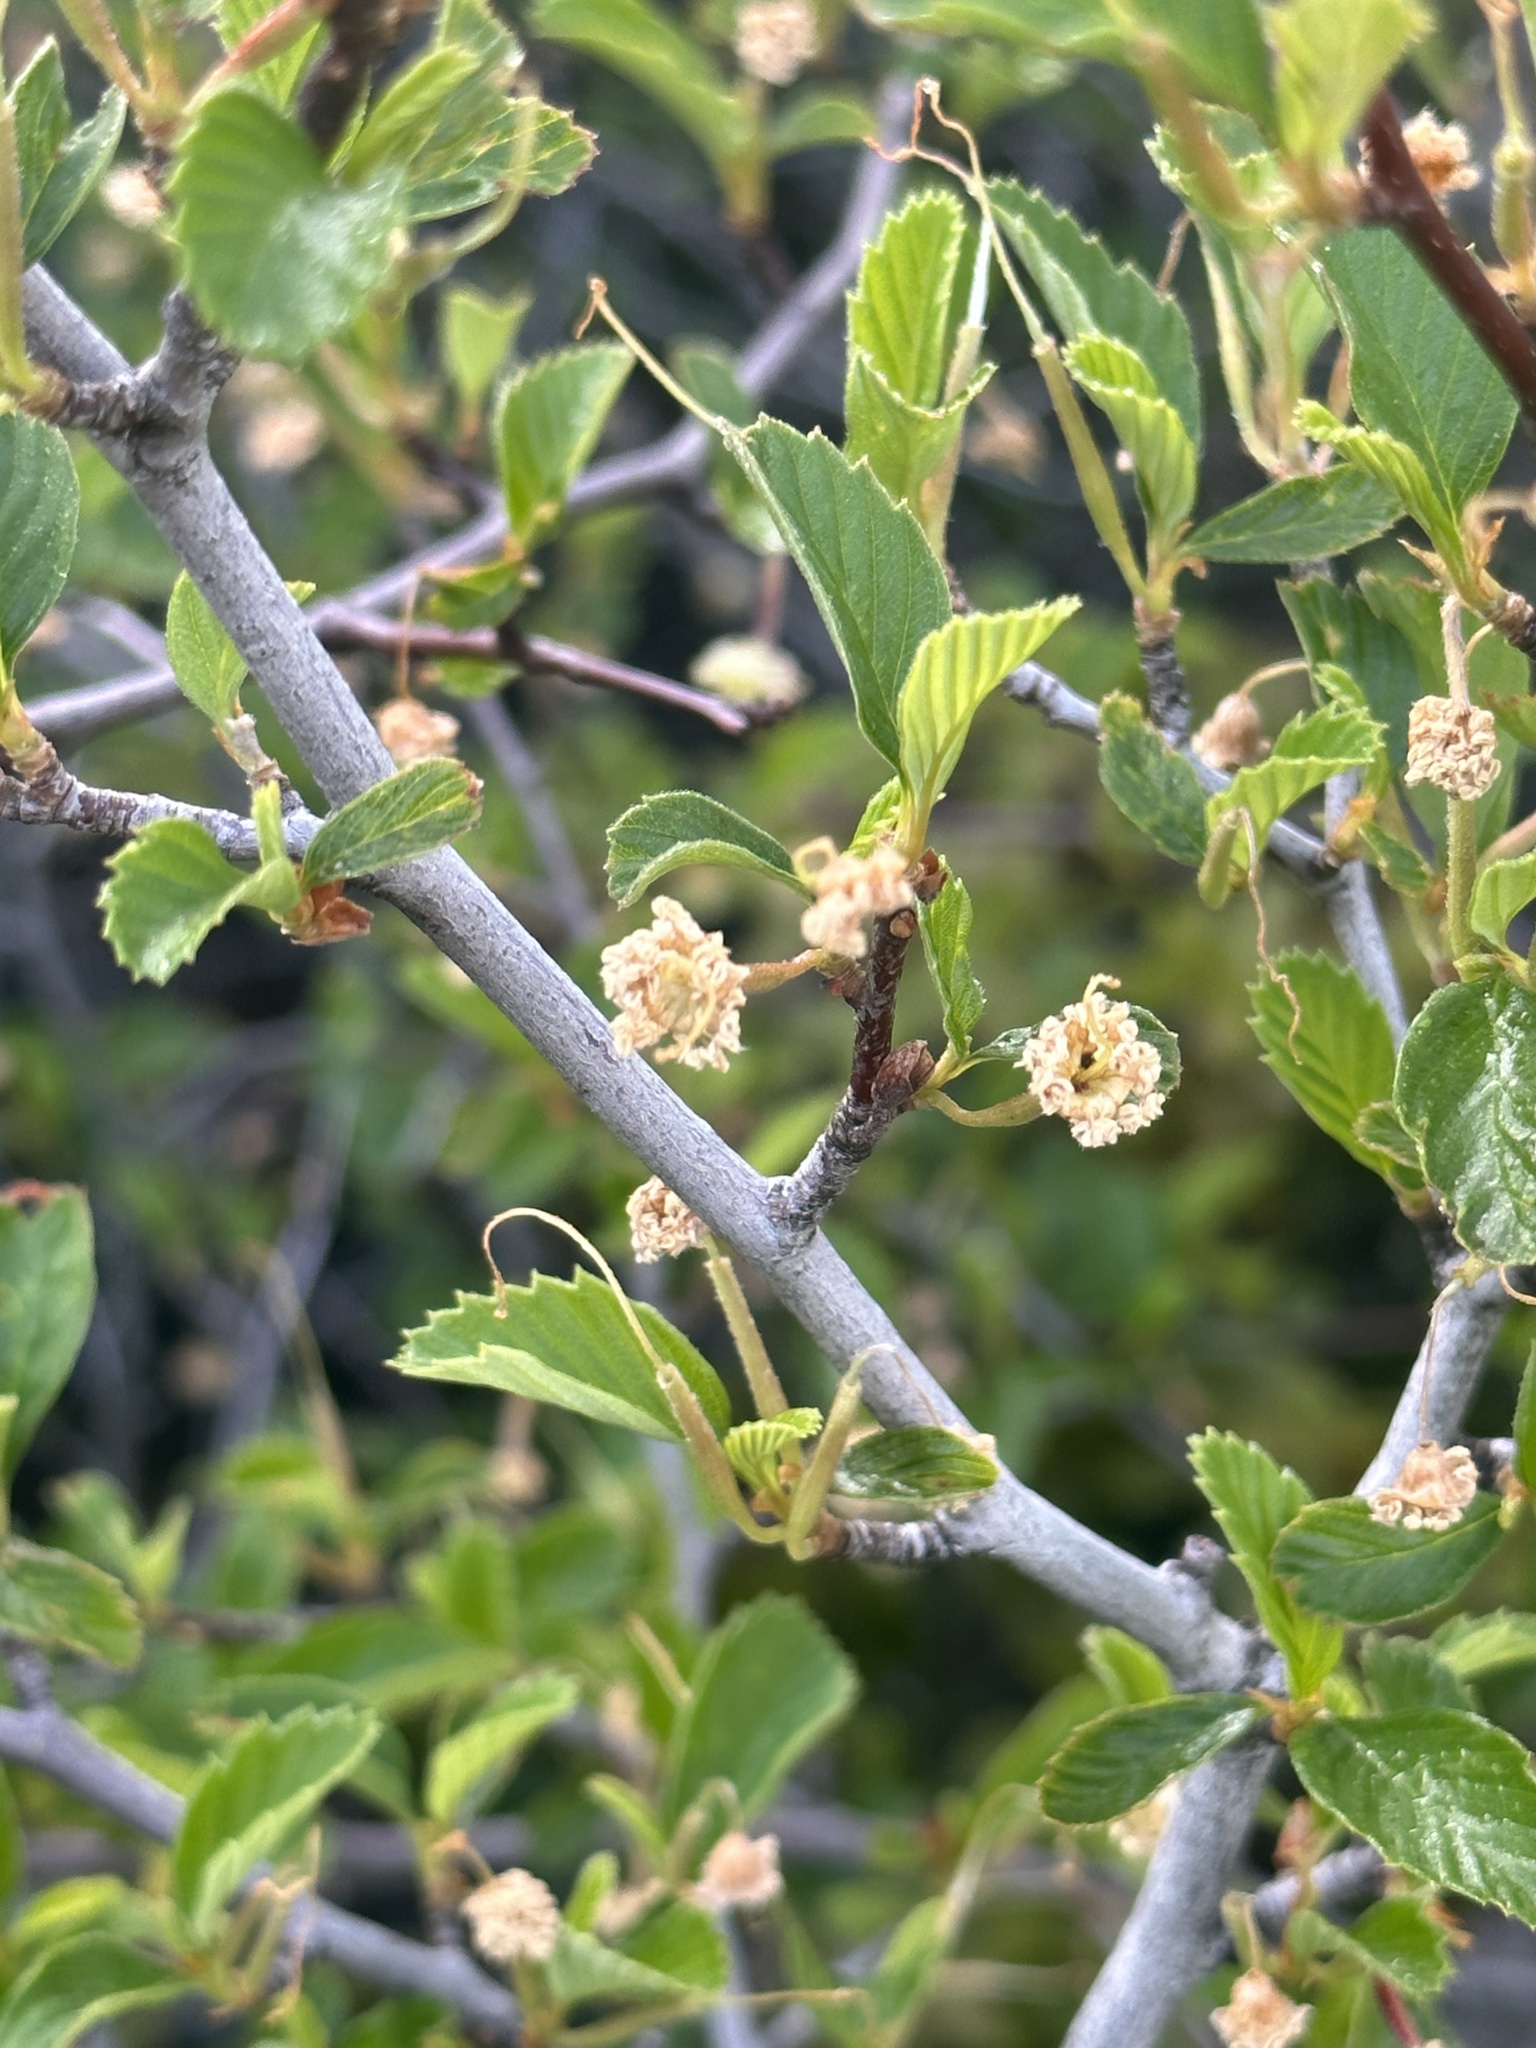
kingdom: Plantae
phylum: Tracheophyta
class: Magnoliopsida
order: Rosales
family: Rosaceae
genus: Cercocarpus
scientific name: Cercocarpus betuloides
